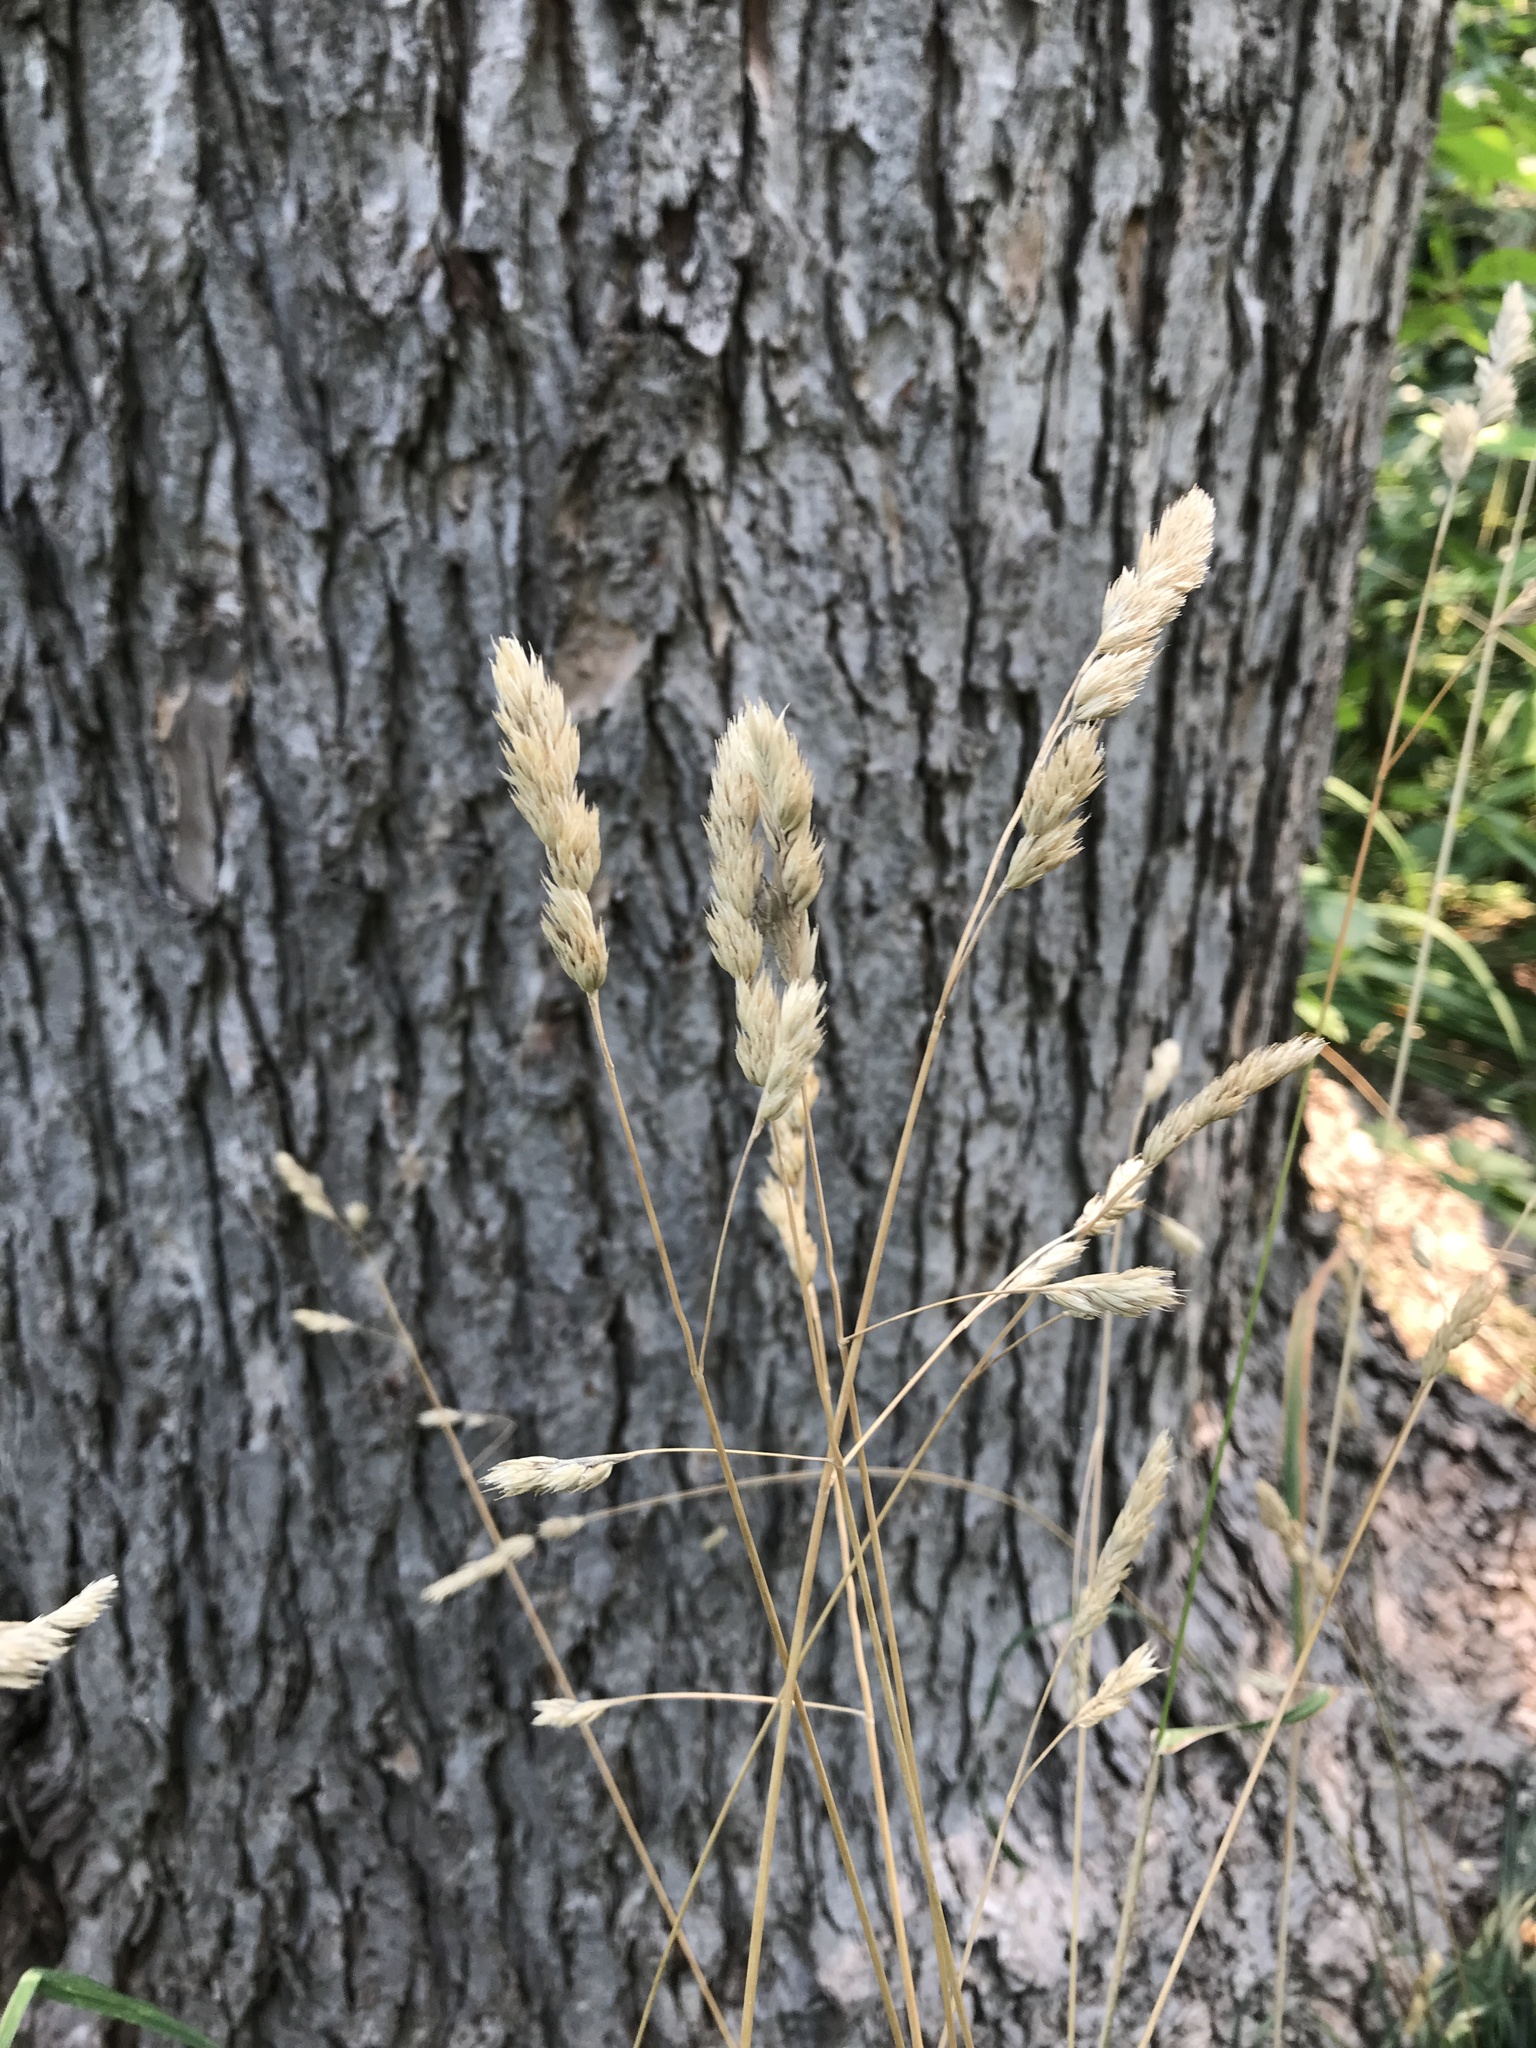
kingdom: Plantae
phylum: Tracheophyta
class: Liliopsida
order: Poales
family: Poaceae
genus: Dactylis
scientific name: Dactylis glomerata
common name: Orchardgrass
